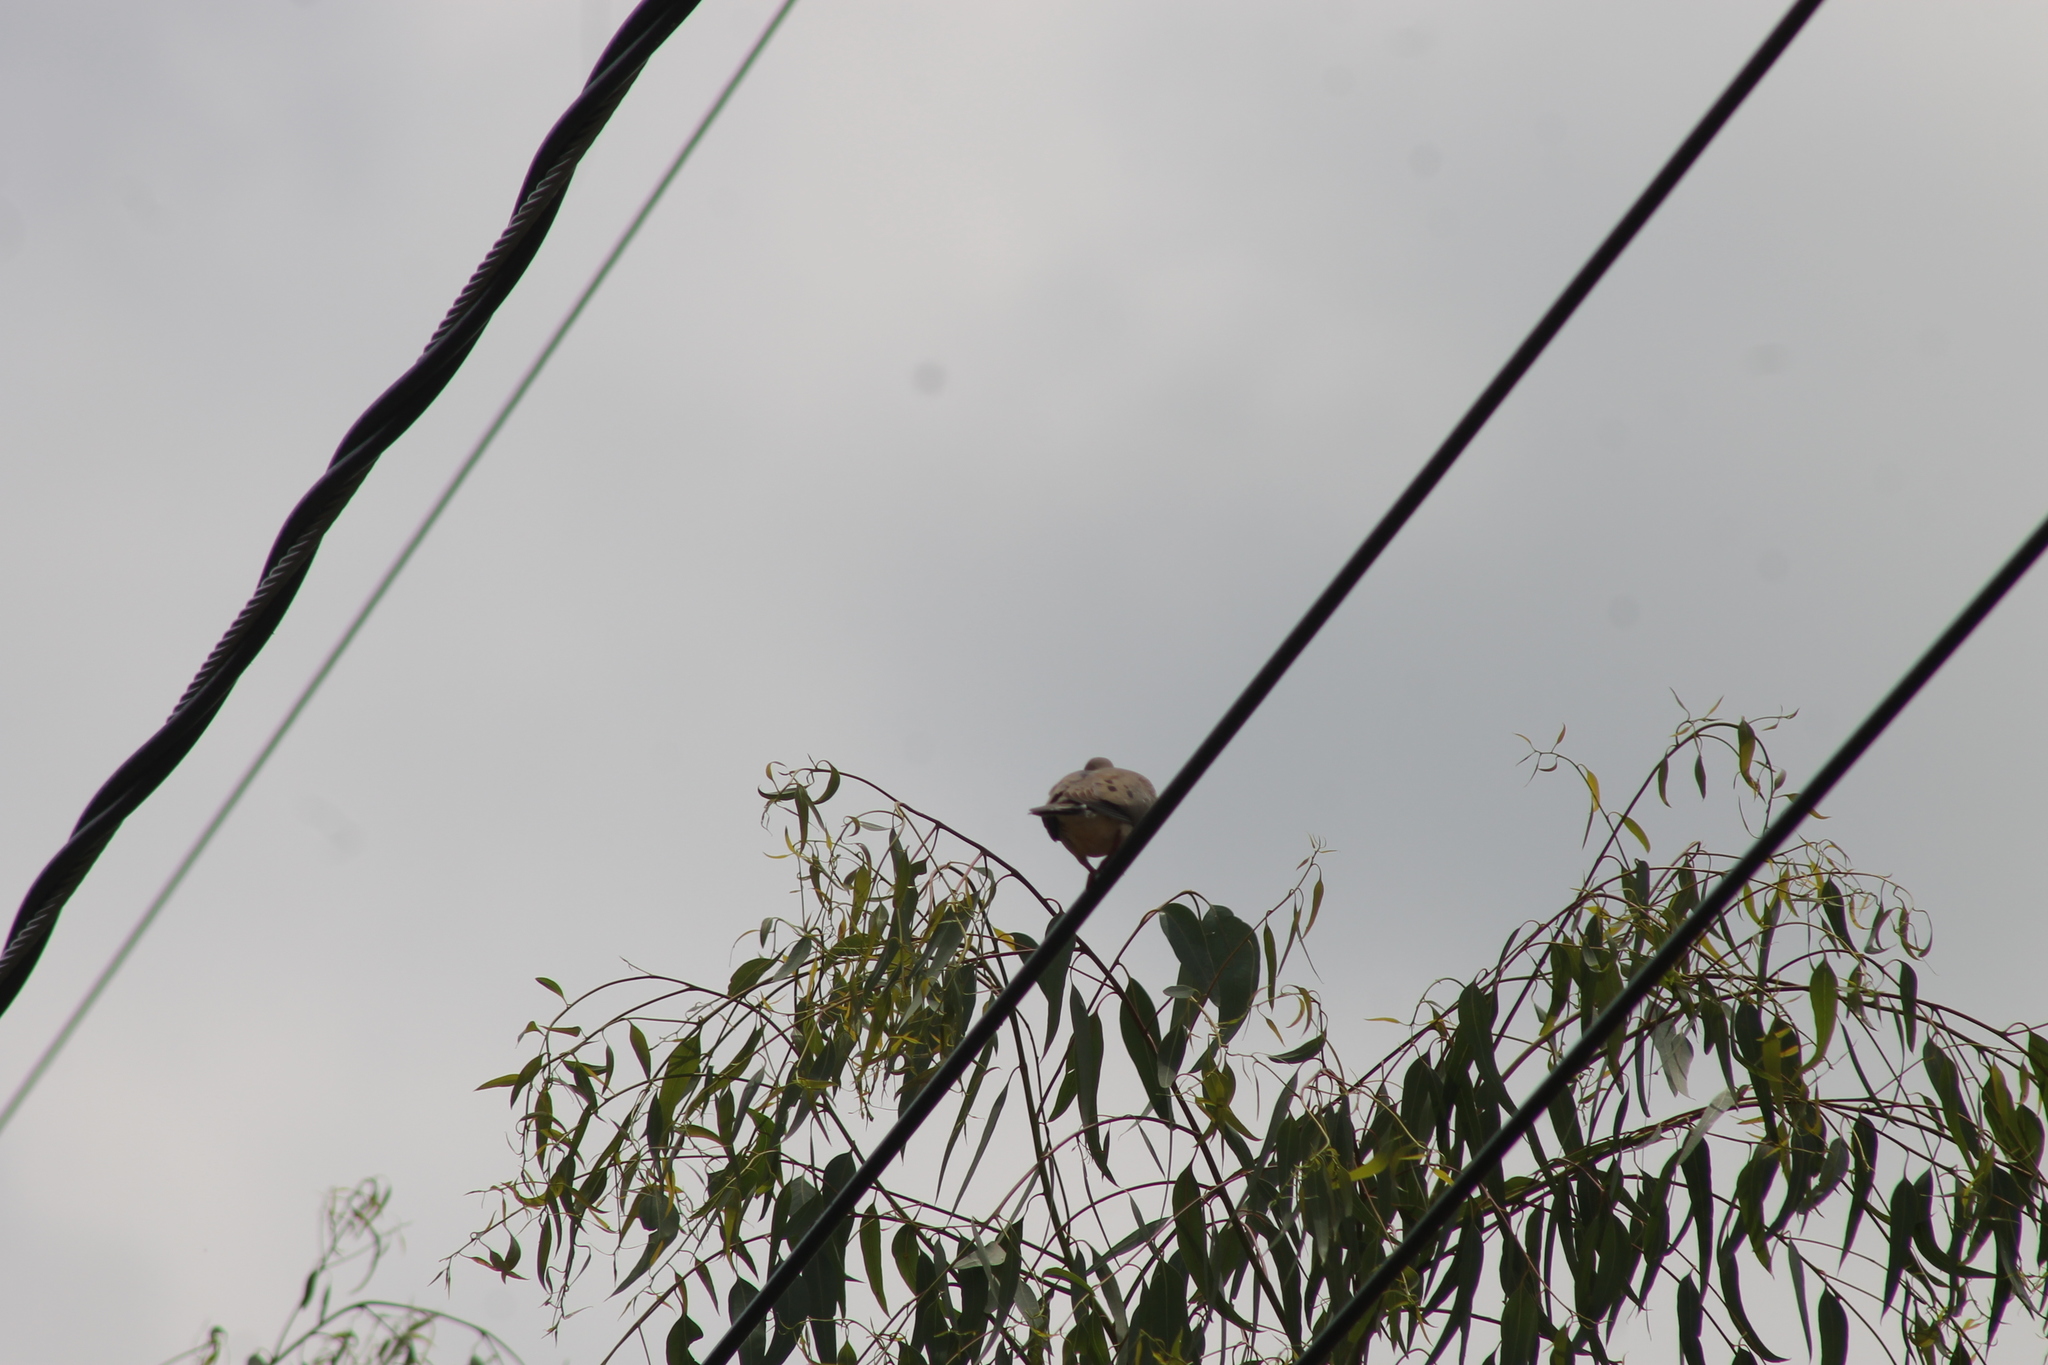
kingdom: Animalia
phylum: Chordata
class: Aves
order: Columbiformes
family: Columbidae
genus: Zenaida
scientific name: Zenaida macroura
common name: Mourning dove
